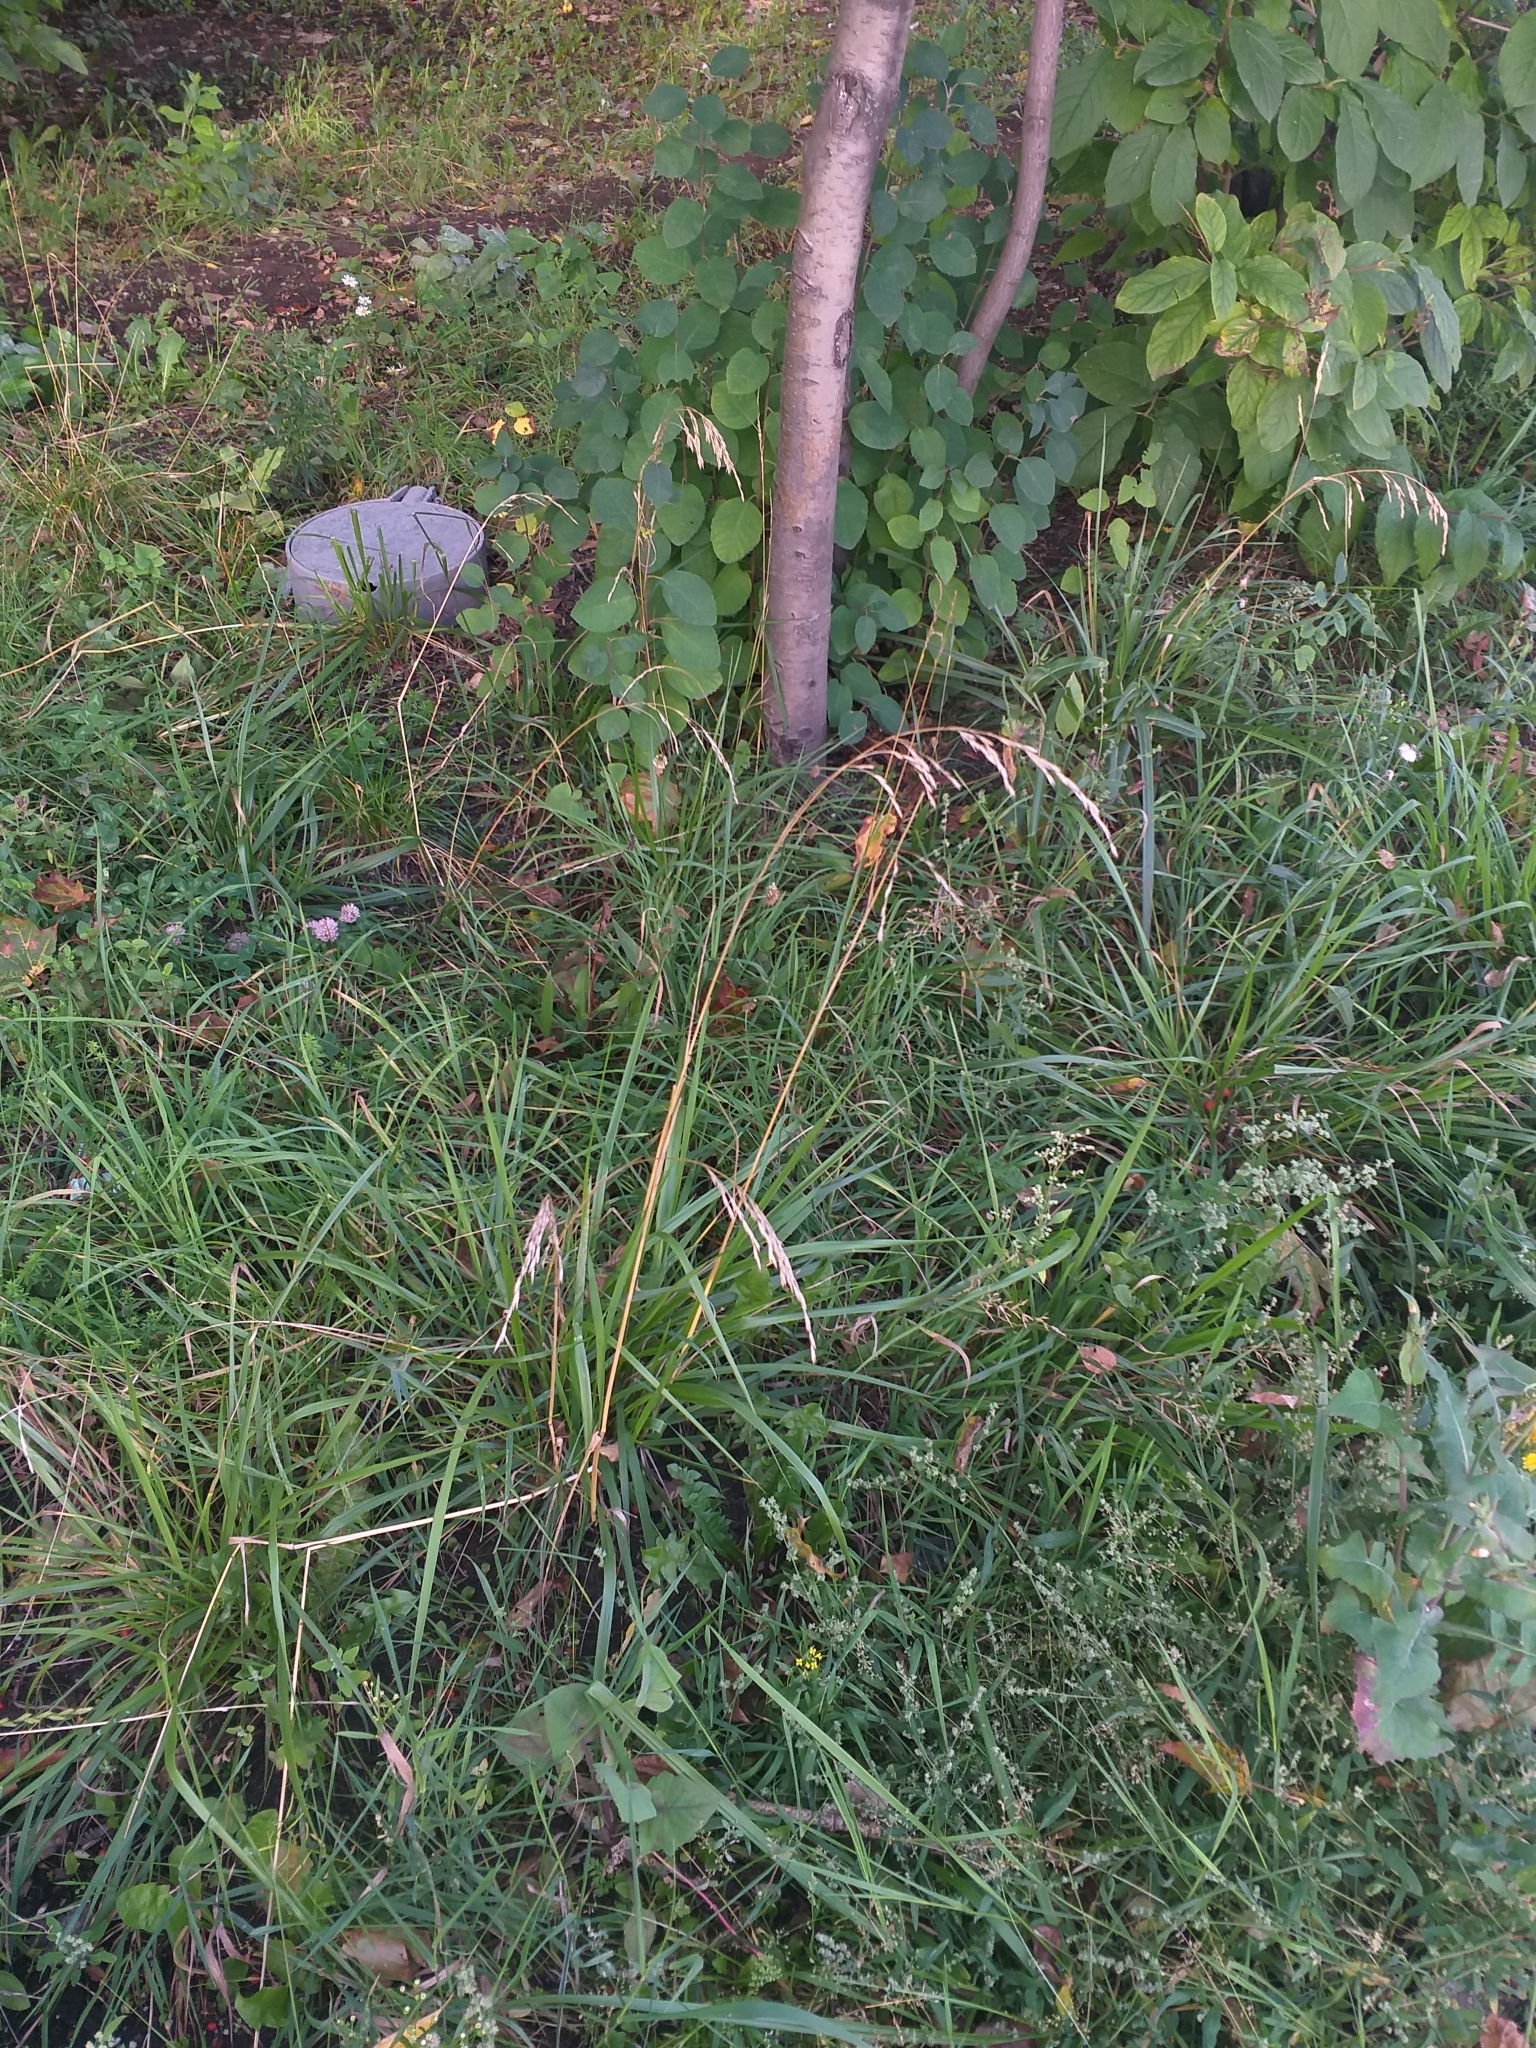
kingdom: Plantae
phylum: Tracheophyta
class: Liliopsida
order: Poales
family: Poaceae
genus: Lolium
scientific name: Lolium arundinaceum
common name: Reed fescue
